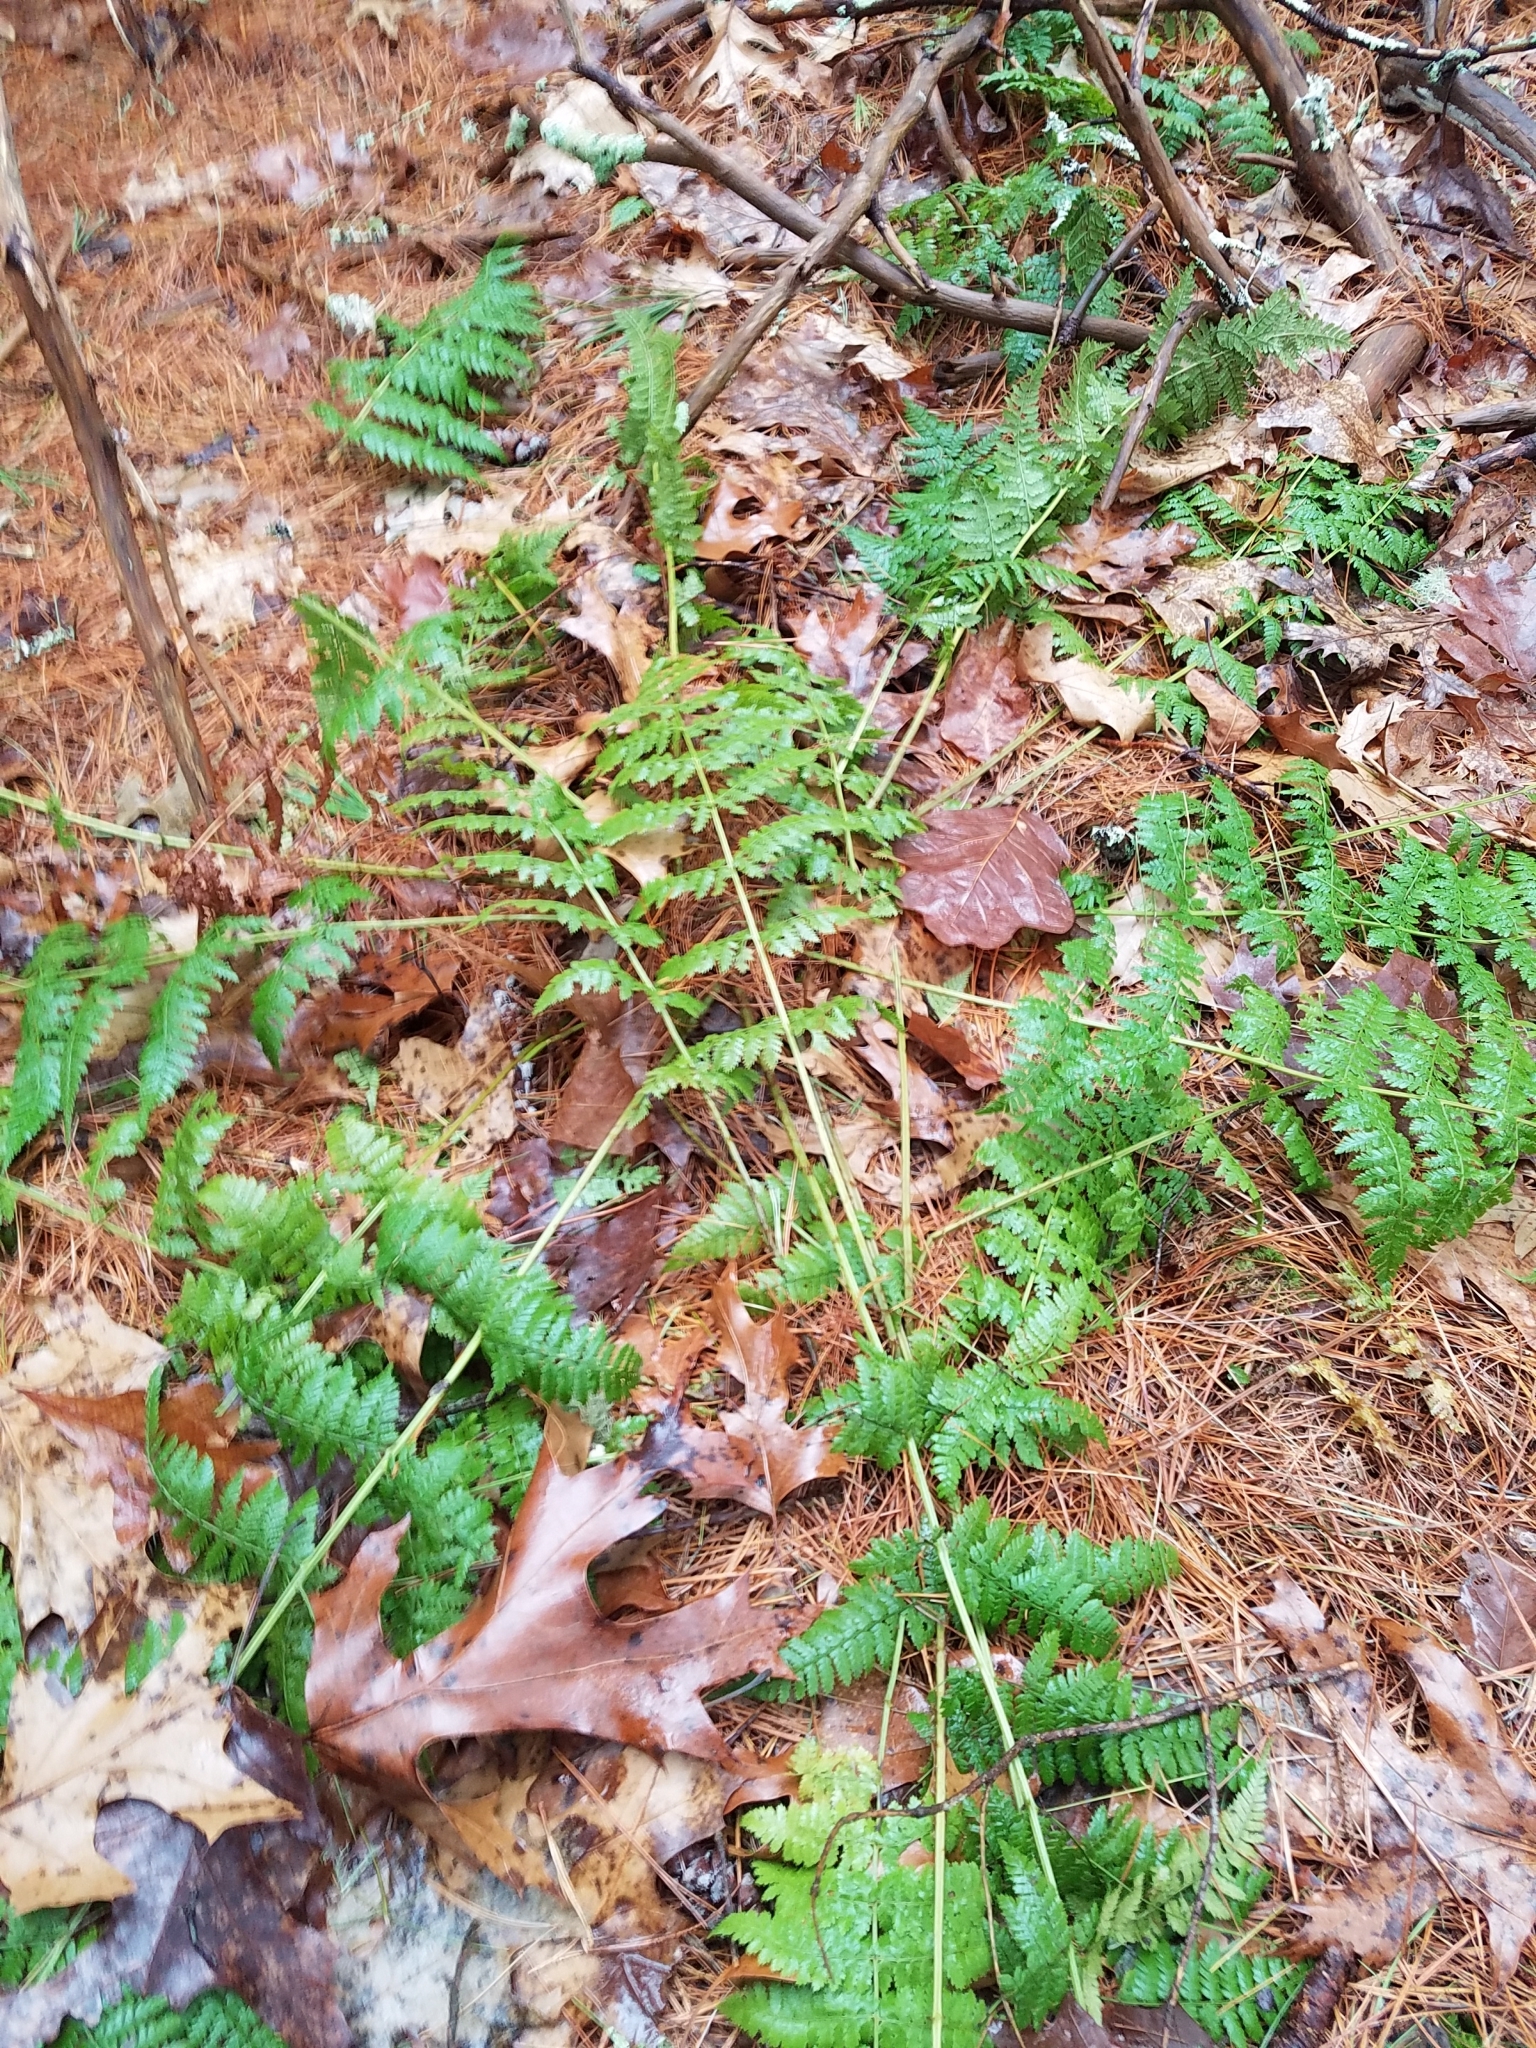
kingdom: Plantae
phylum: Tracheophyta
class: Polypodiopsida
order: Polypodiales
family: Dryopteridaceae
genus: Dryopteris
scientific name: Dryopteris intermedia
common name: Evergreen wood fern
